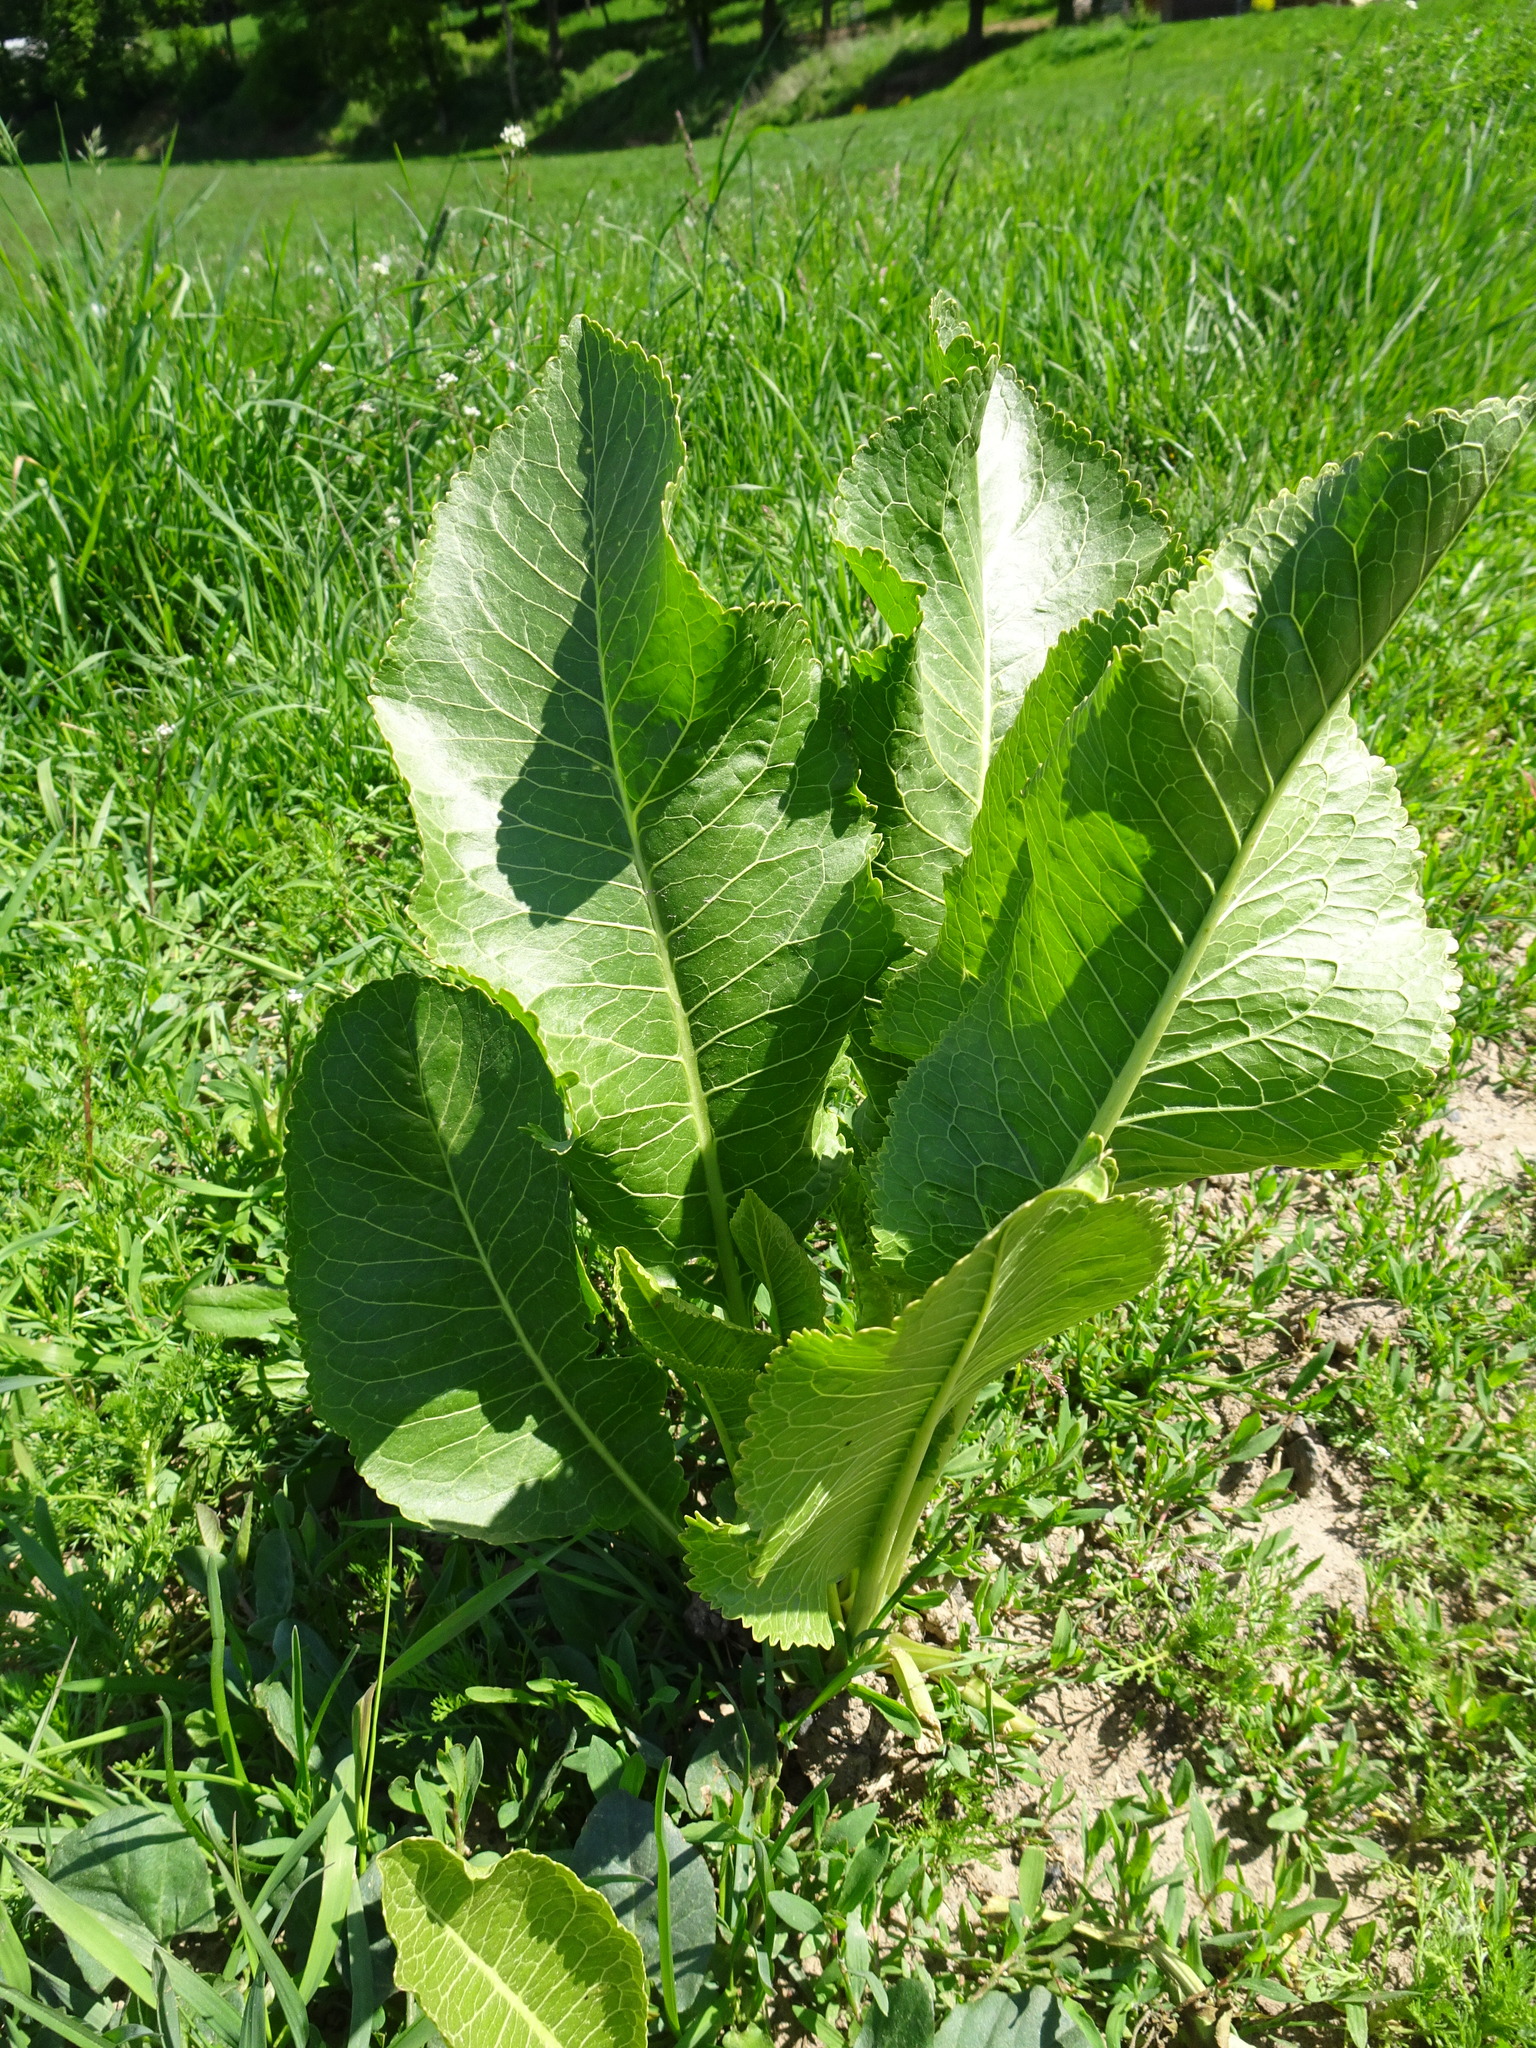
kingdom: Plantae
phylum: Tracheophyta
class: Magnoliopsida
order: Brassicales
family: Brassicaceae
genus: Armoracia
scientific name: Armoracia rusticana
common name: Horseradish
